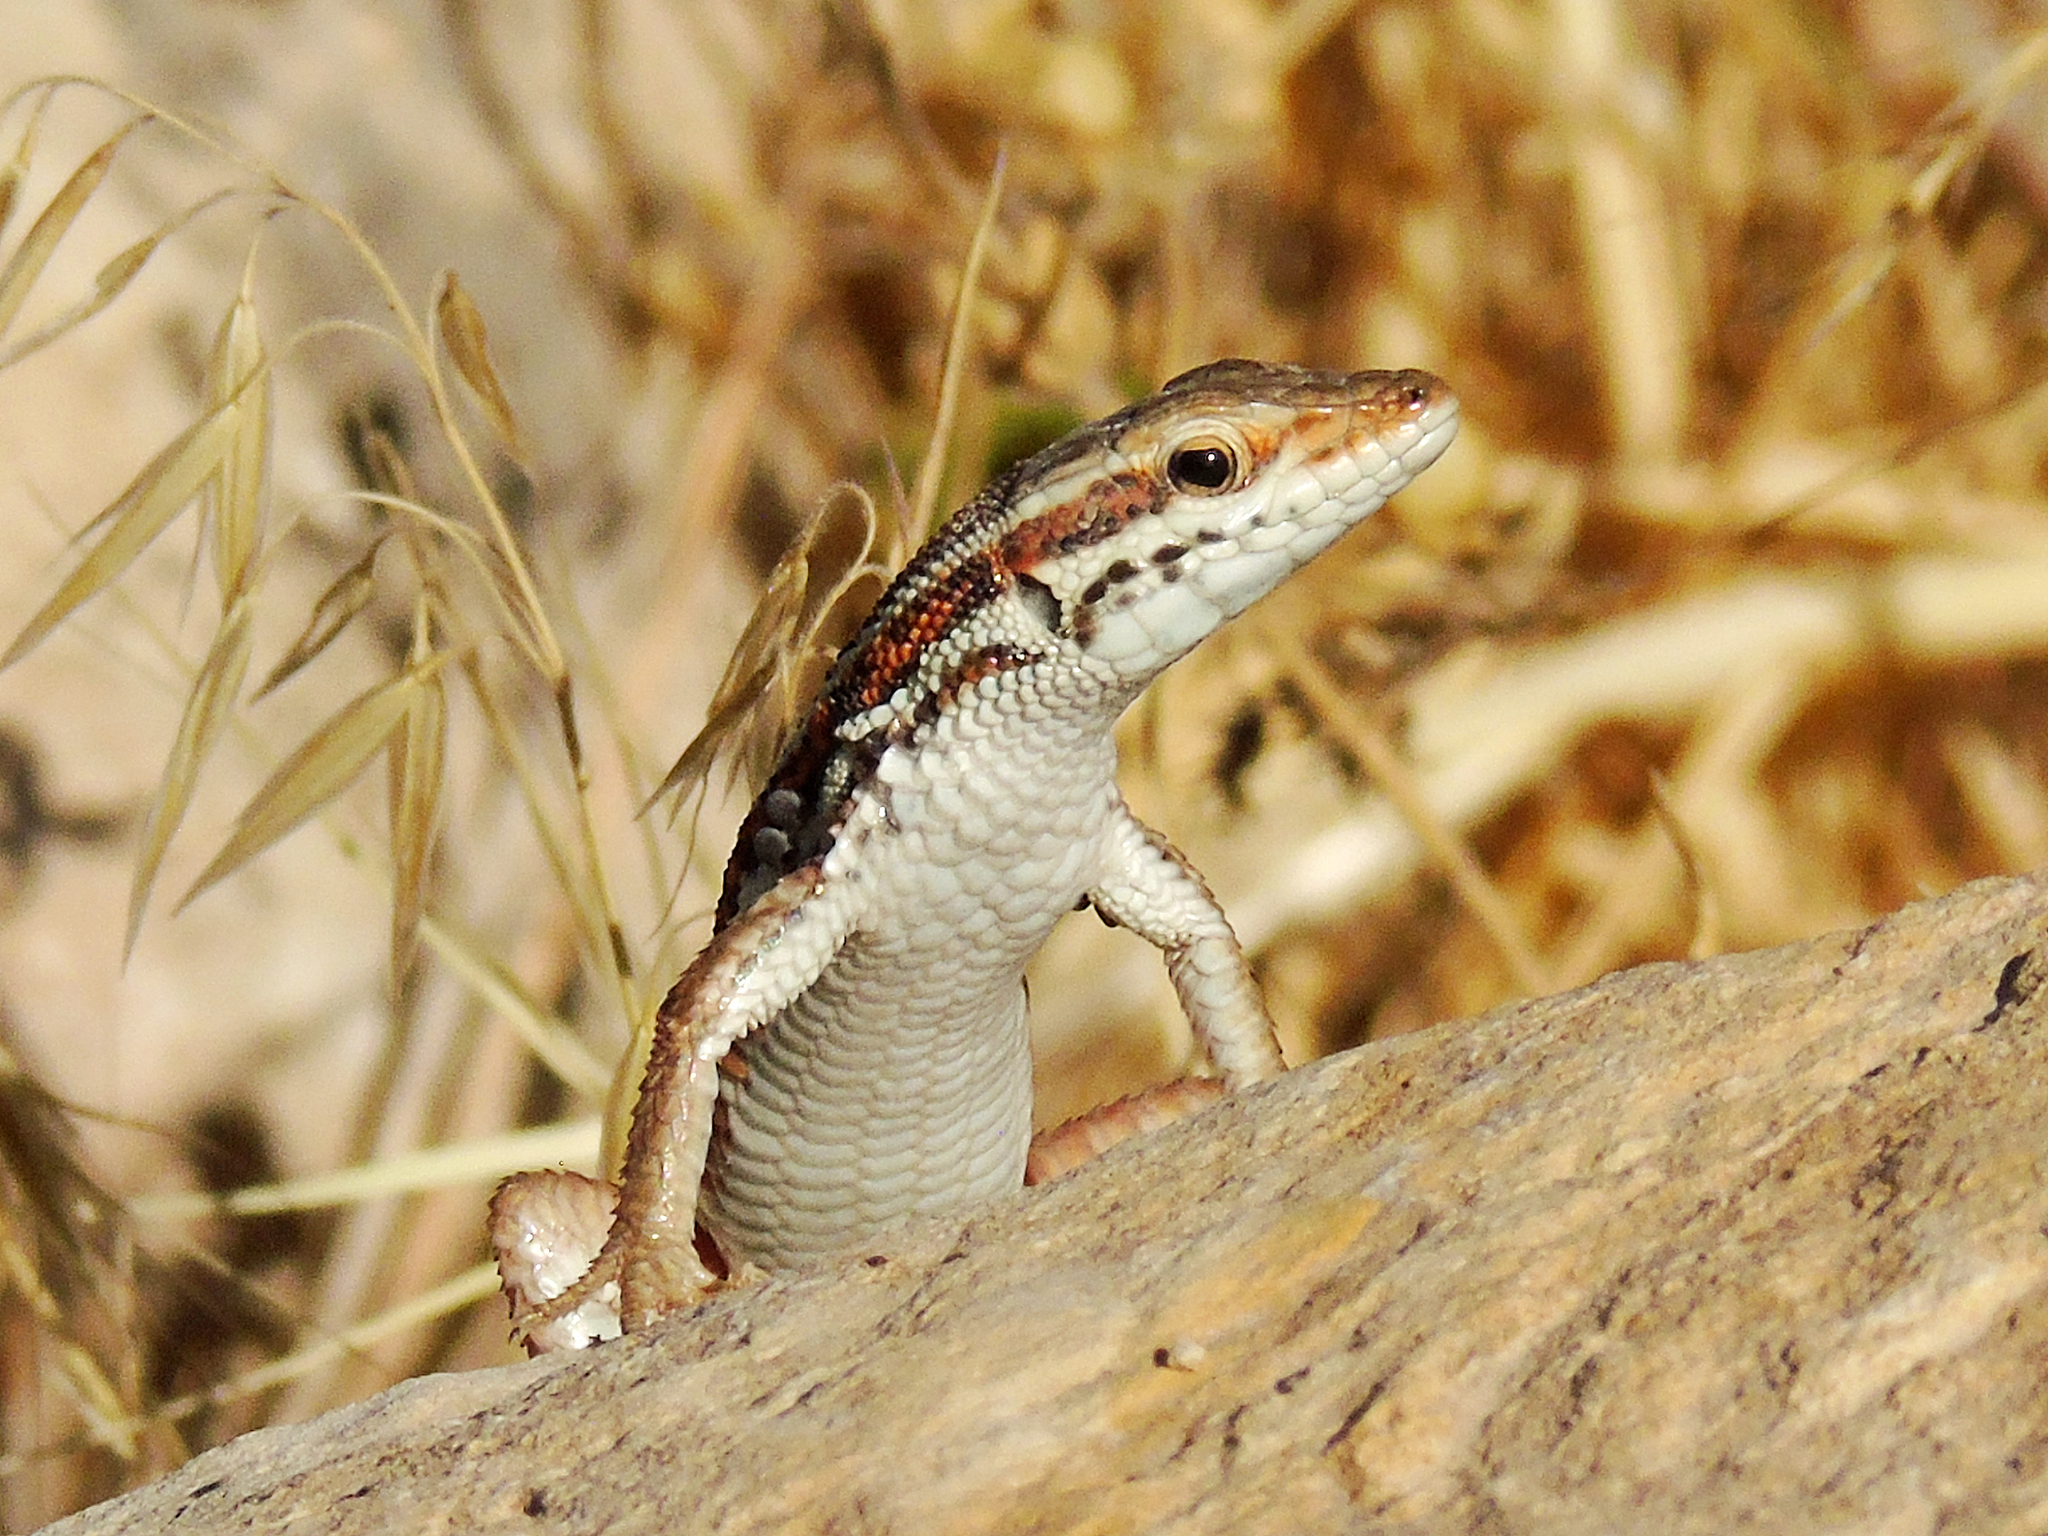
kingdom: Animalia
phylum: Chordata
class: Squamata
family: Lacertidae
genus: Ophisops
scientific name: Ophisops elegans
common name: Snake-eyed lizard
